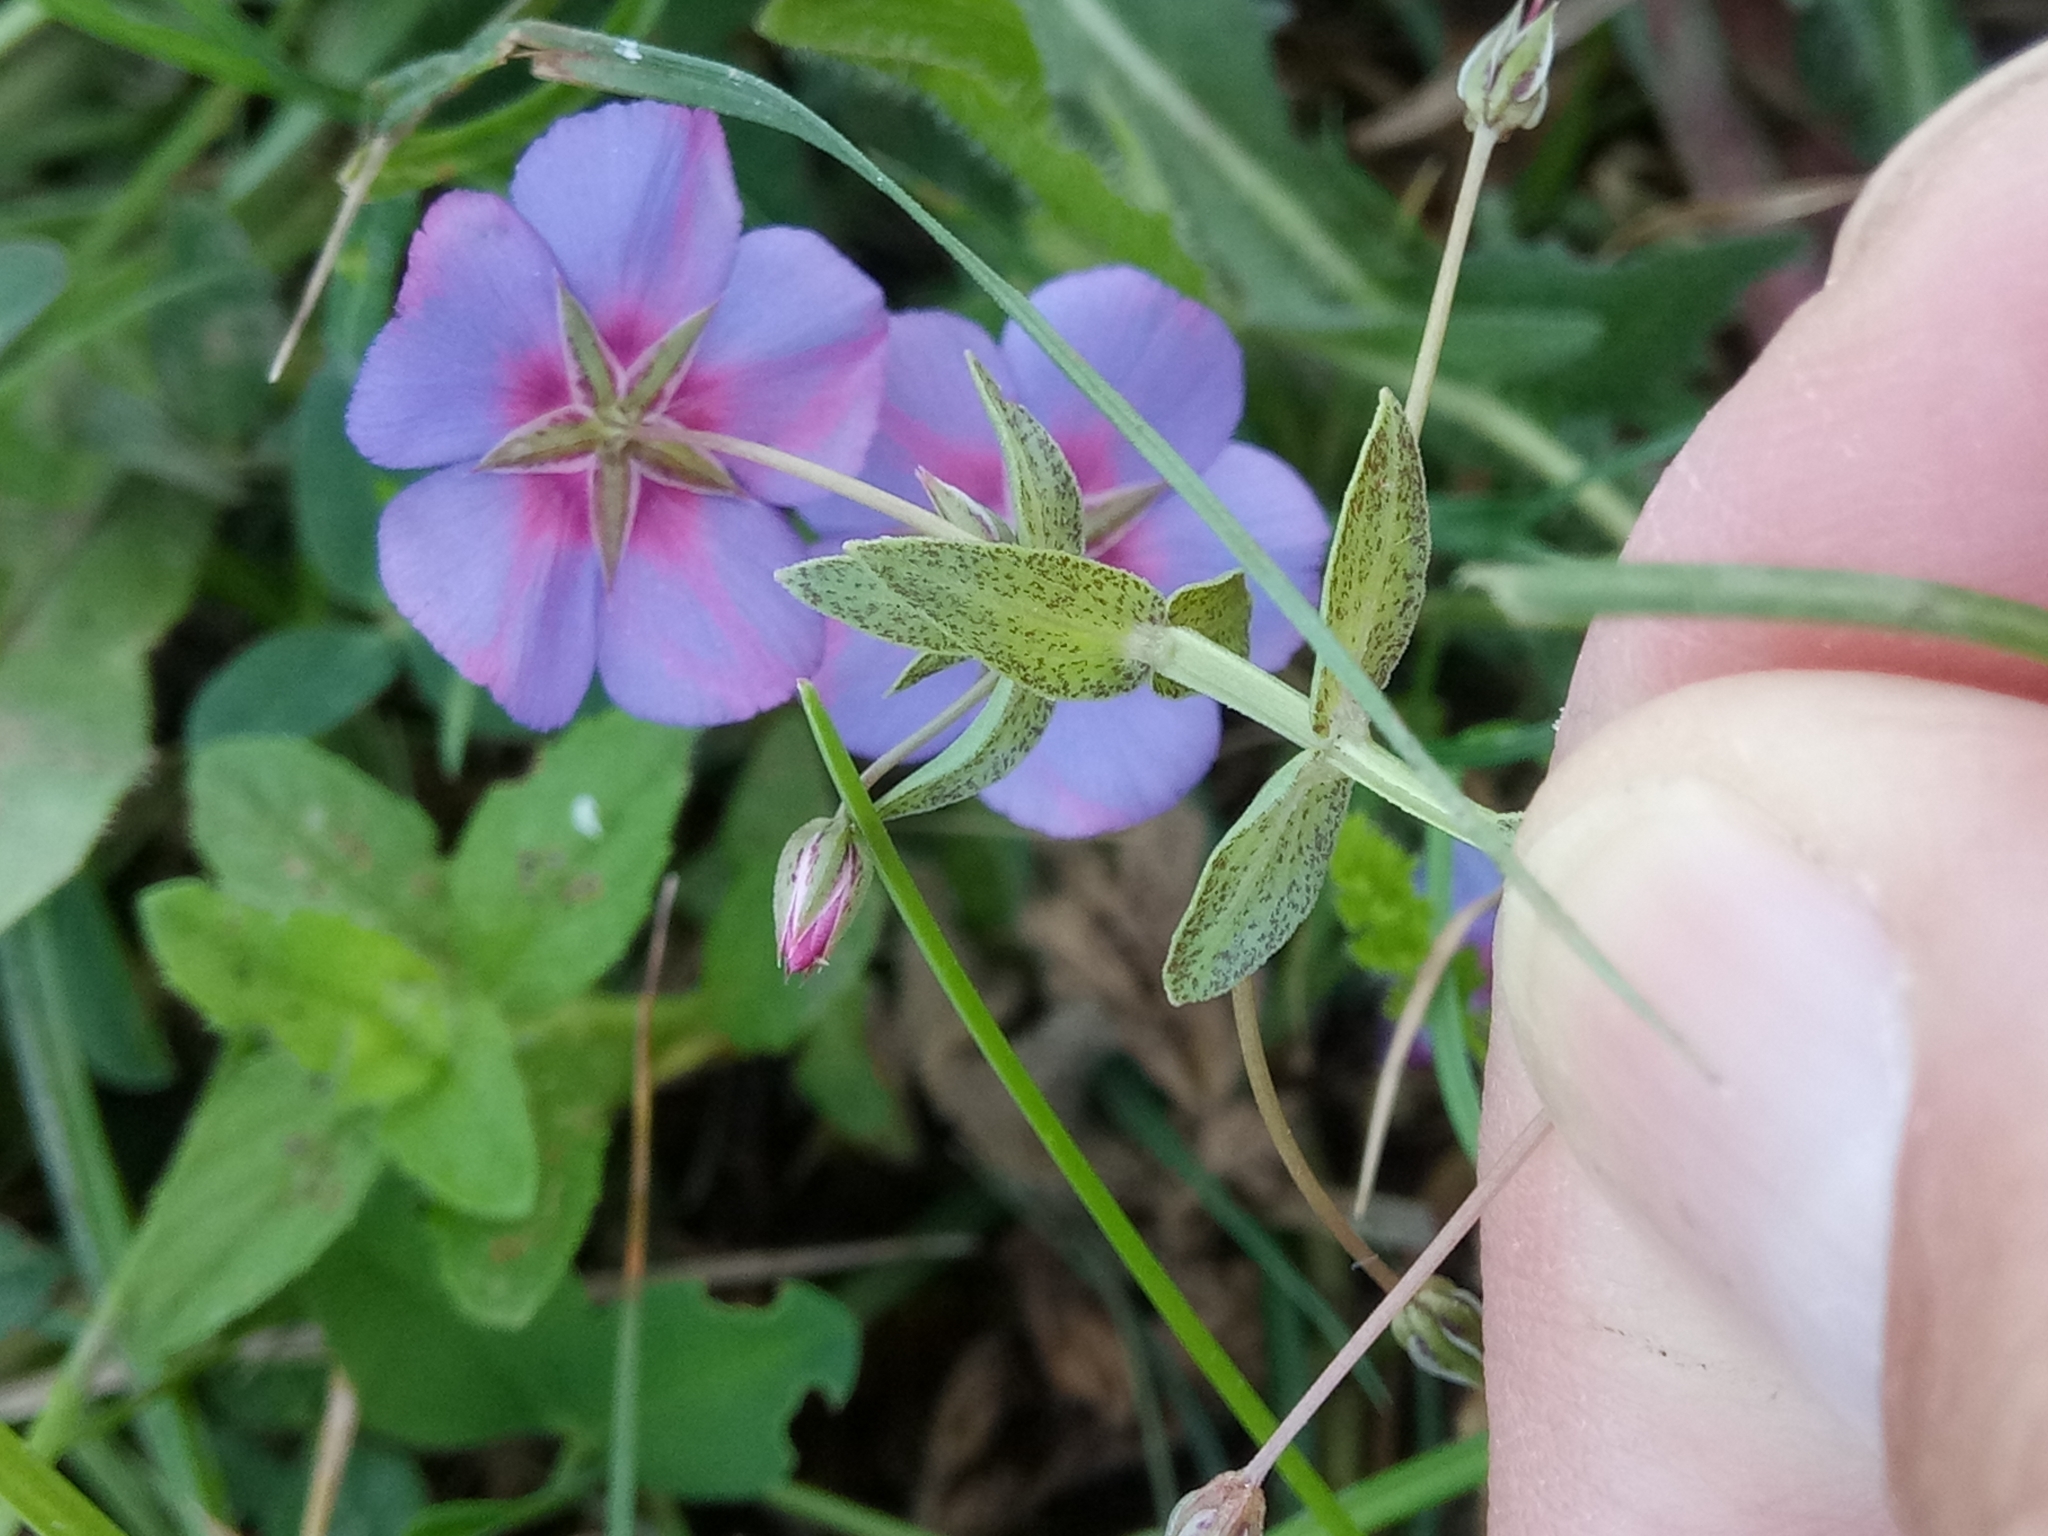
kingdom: Plantae
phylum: Tracheophyta
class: Magnoliopsida
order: Ericales
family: Primulaceae
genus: Lysimachia
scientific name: Lysimachia monelli
